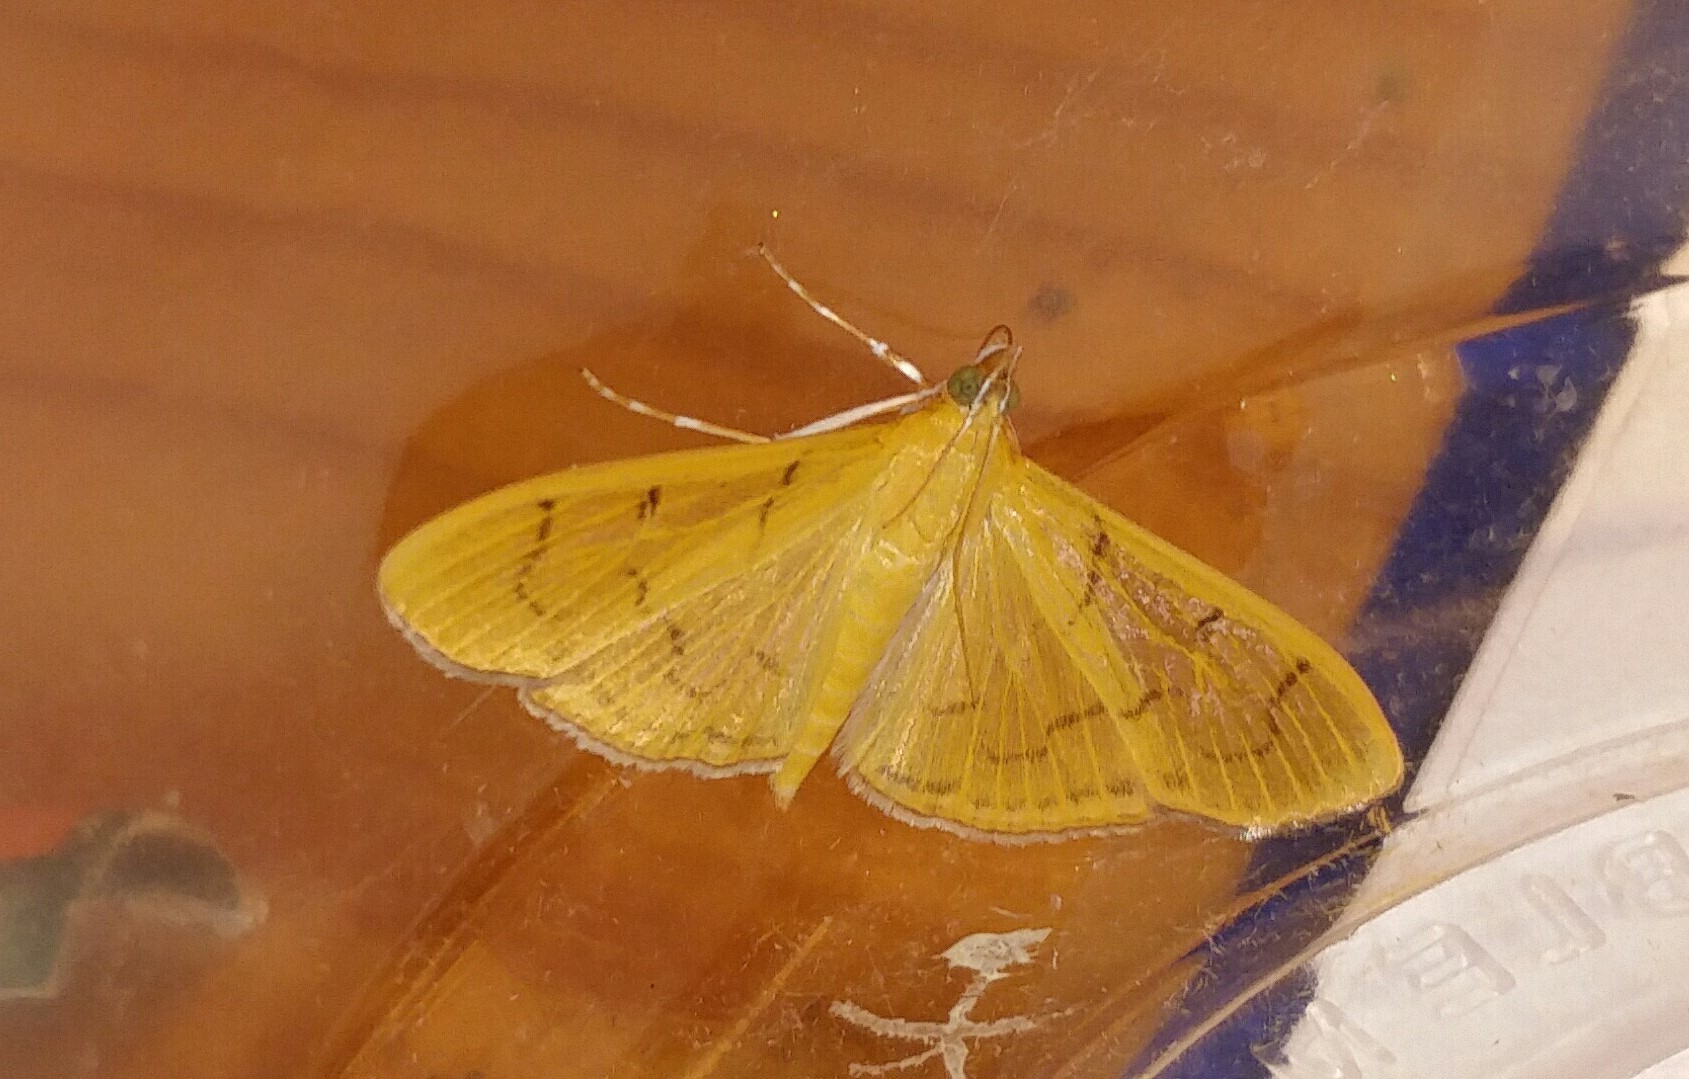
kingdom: Animalia
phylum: Arthropoda
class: Insecta
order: Lepidoptera
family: Crambidae
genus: Condylorrhiza
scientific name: Condylorrhiza vestigialis
